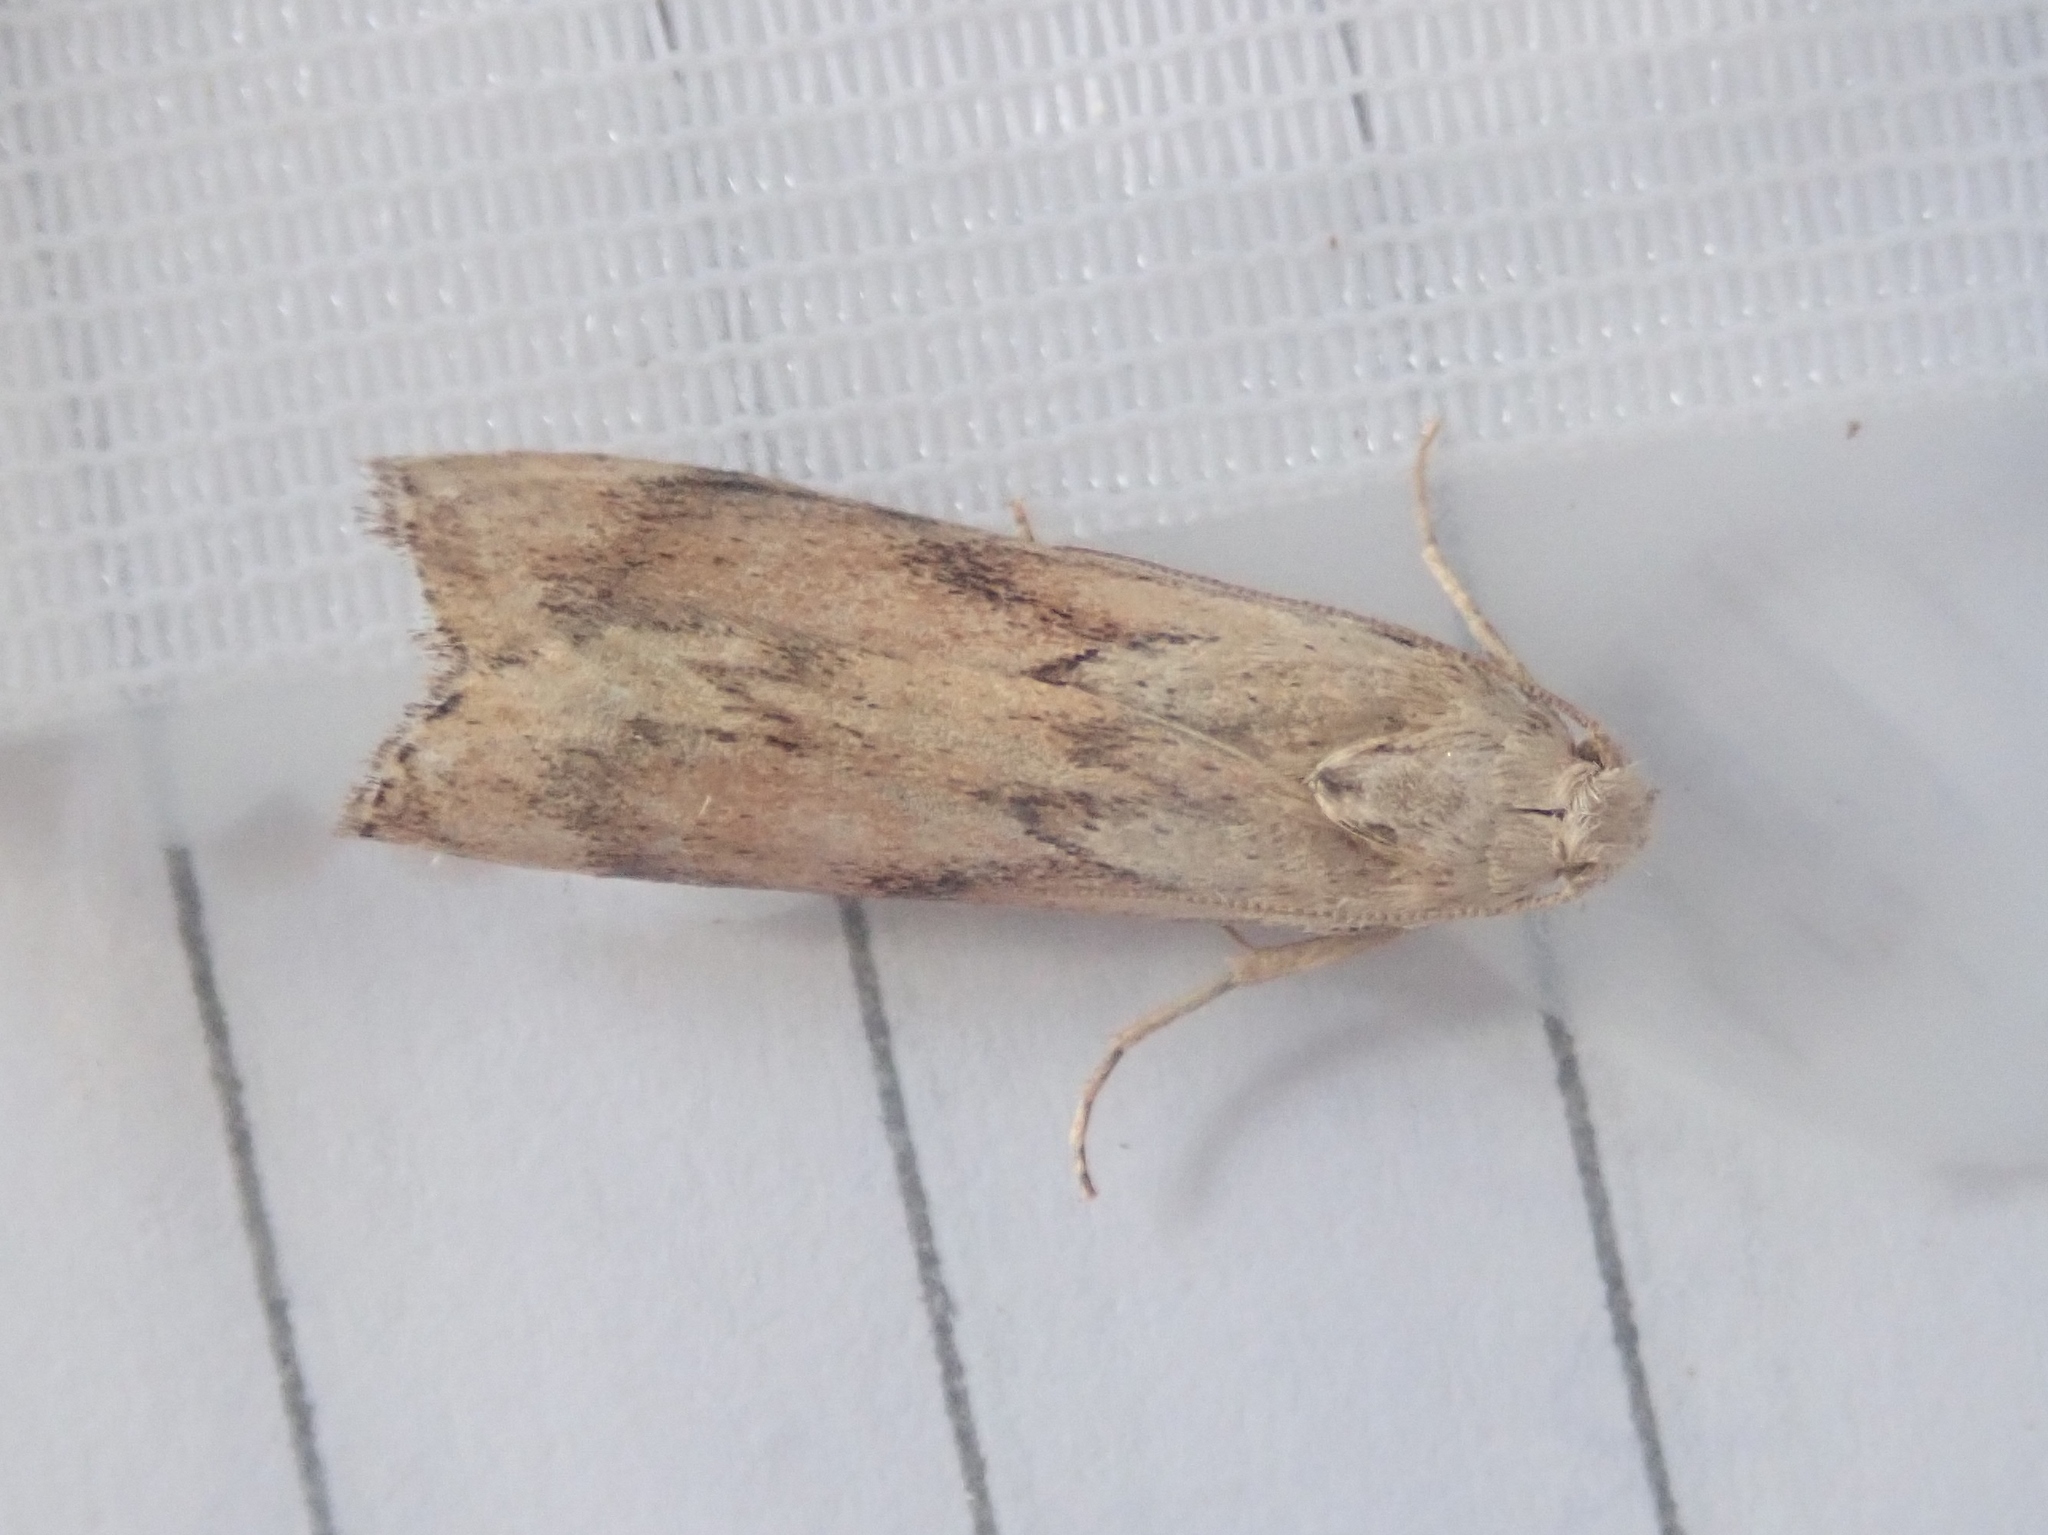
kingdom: Animalia
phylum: Arthropoda
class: Insecta
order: Lepidoptera
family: Pyralidae
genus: Aphomia
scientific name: Aphomia sociella
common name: Bee moth
